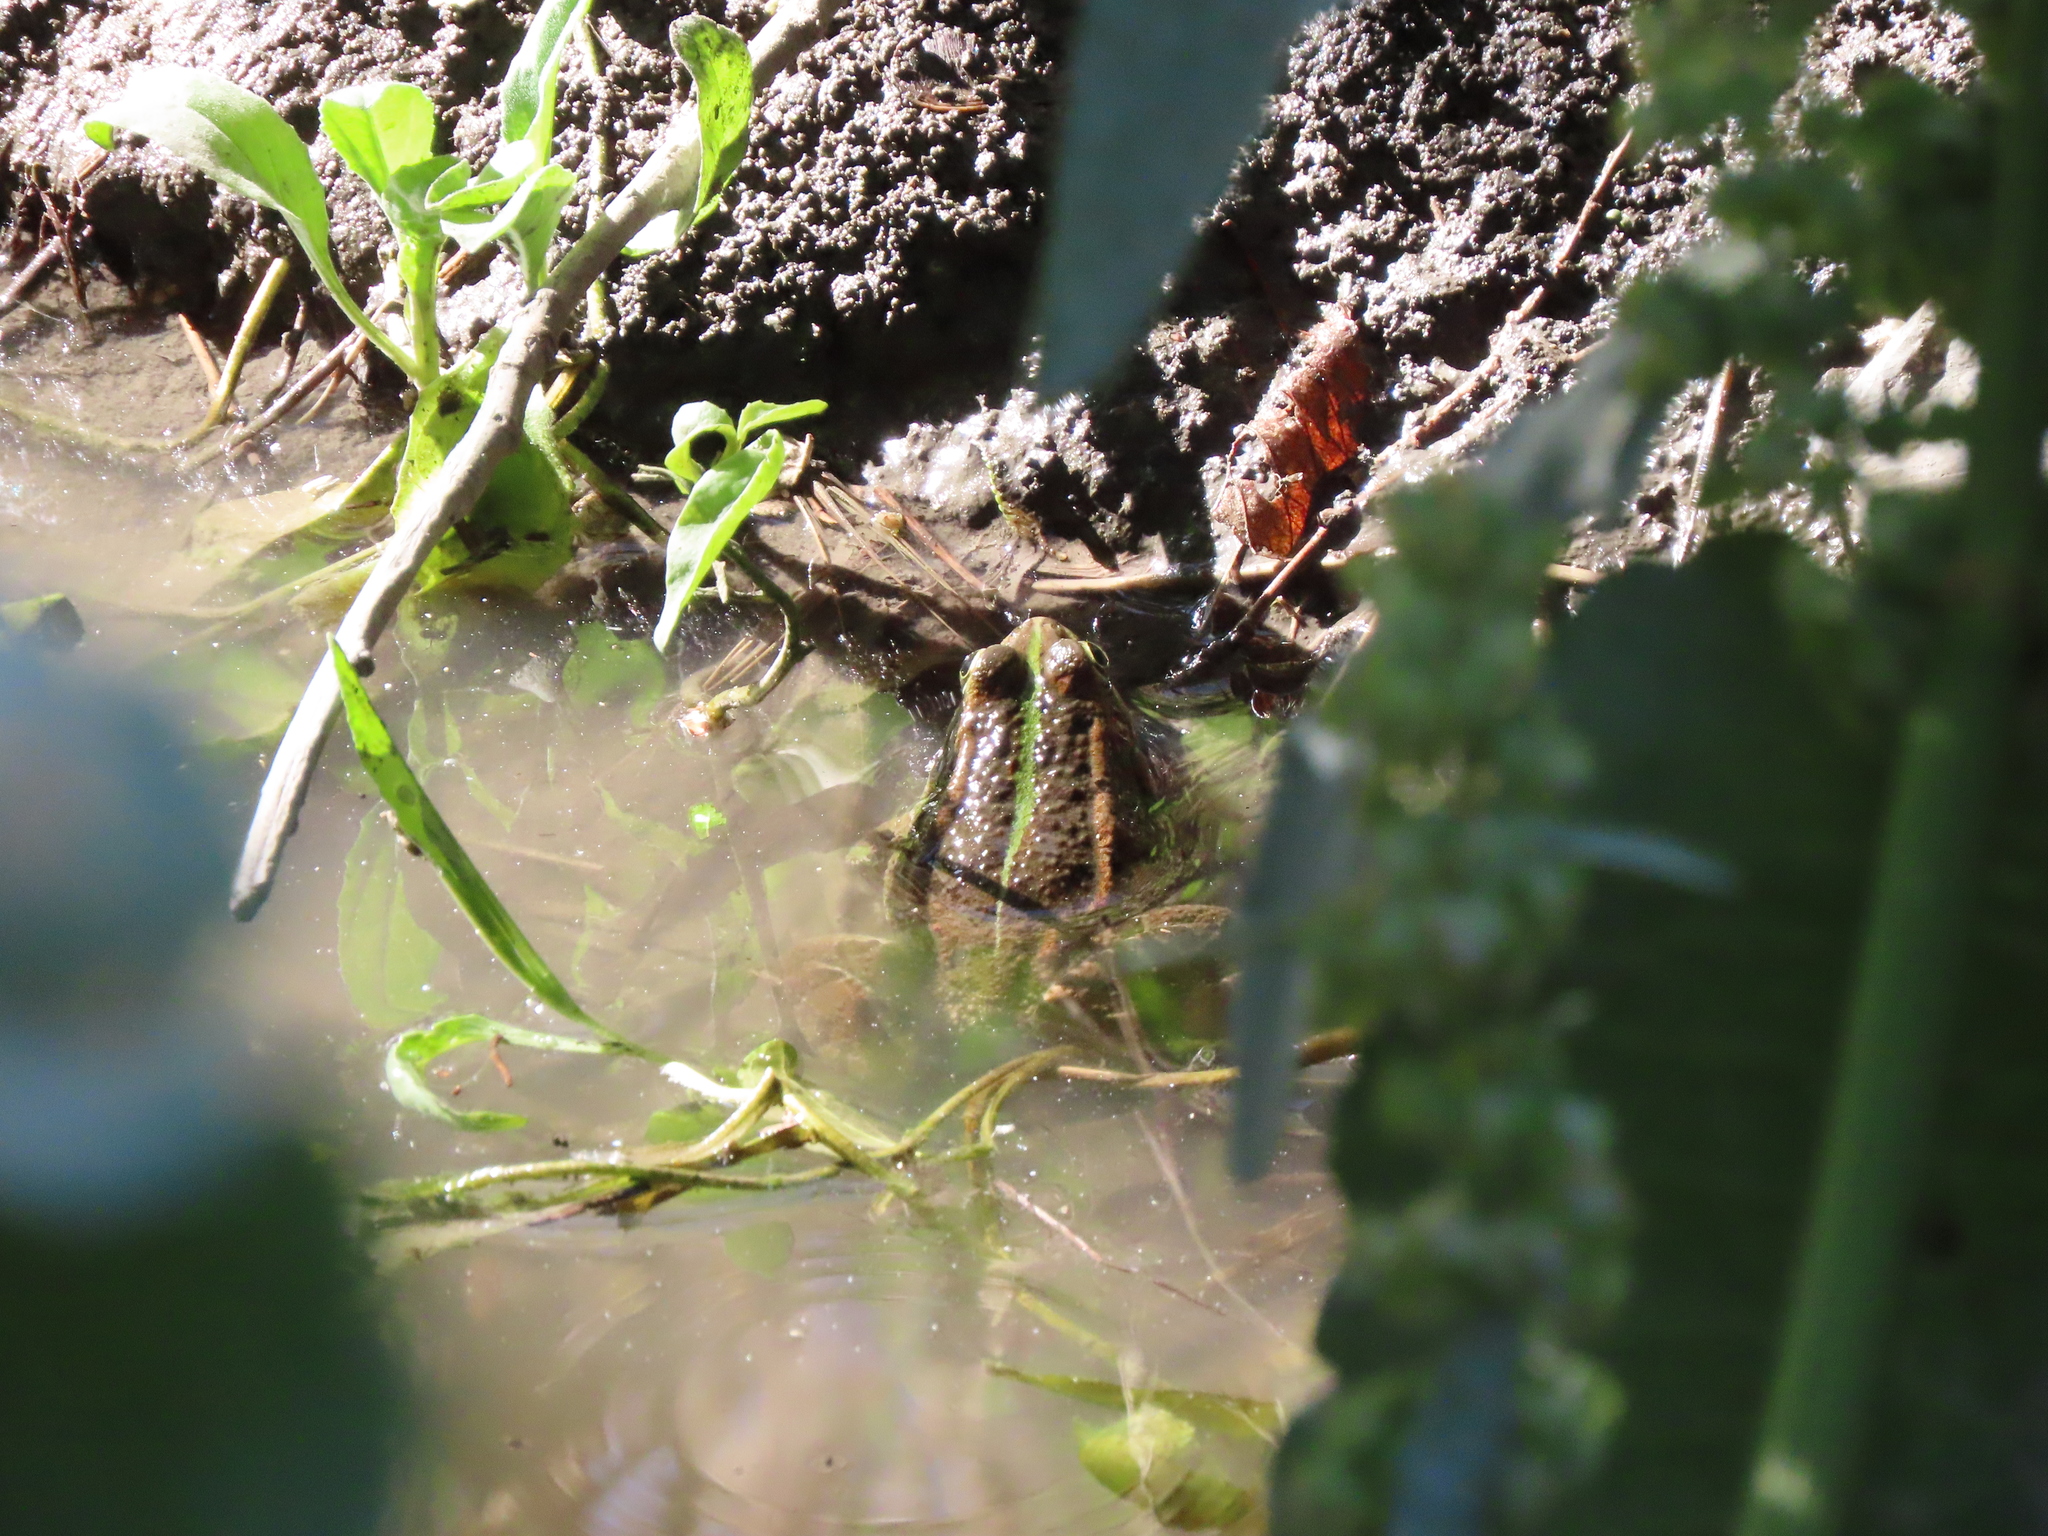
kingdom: Animalia
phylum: Chordata
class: Amphibia
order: Anura
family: Ranidae
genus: Pelophylax
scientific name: Pelophylax perezi
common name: Perez's frog
